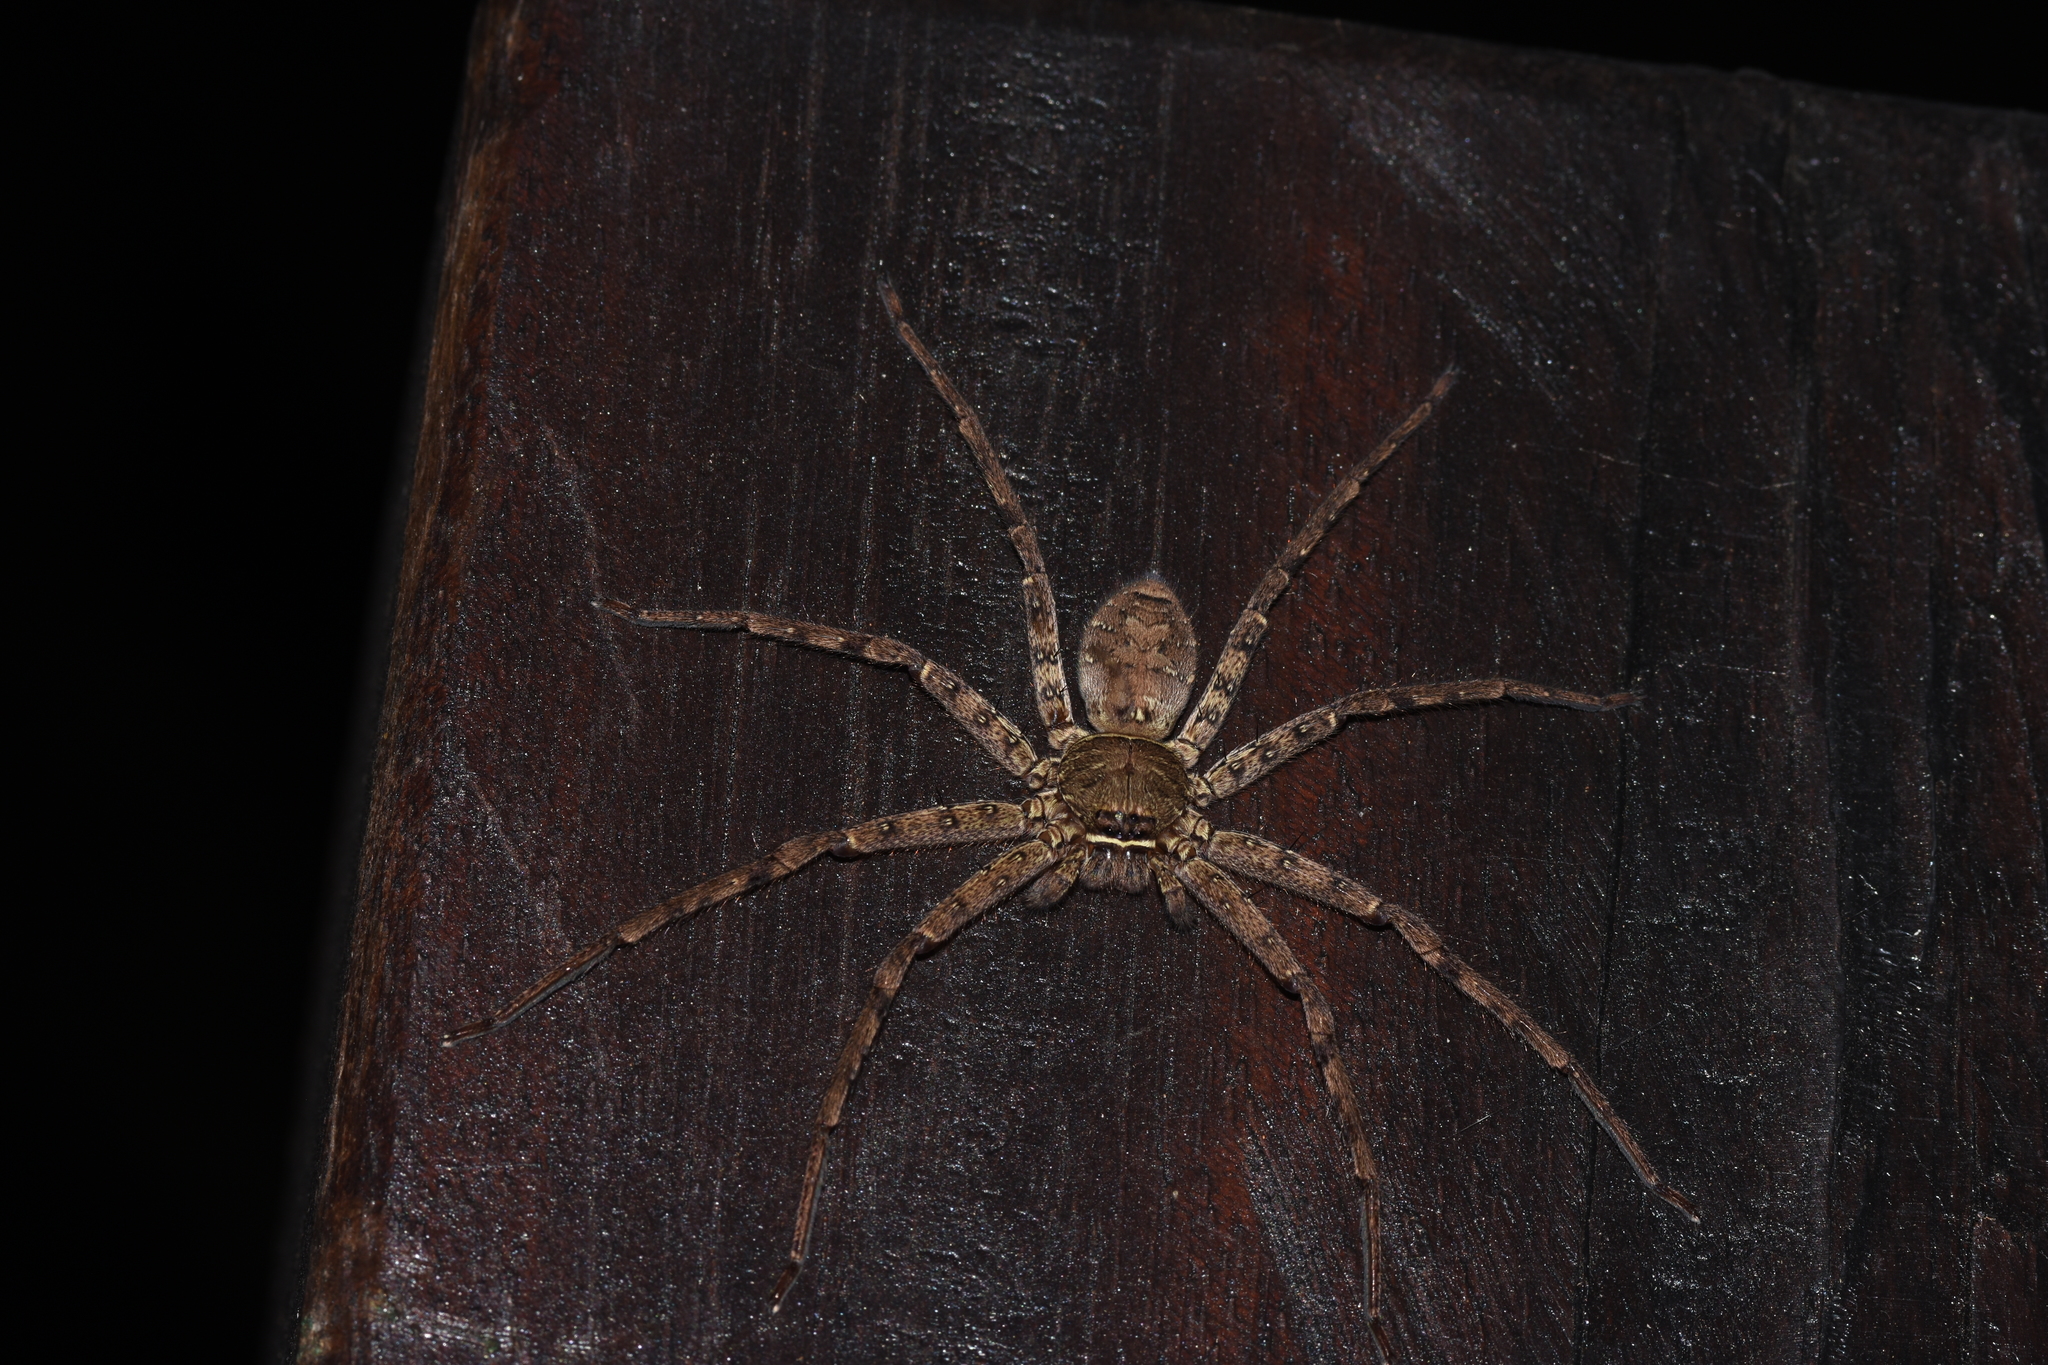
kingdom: Animalia
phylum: Arthropoda
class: Arachnida
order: Araneae
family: Sparassidae
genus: Heteropoda
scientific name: Heteropoda venatoria
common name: Huntsman spider
